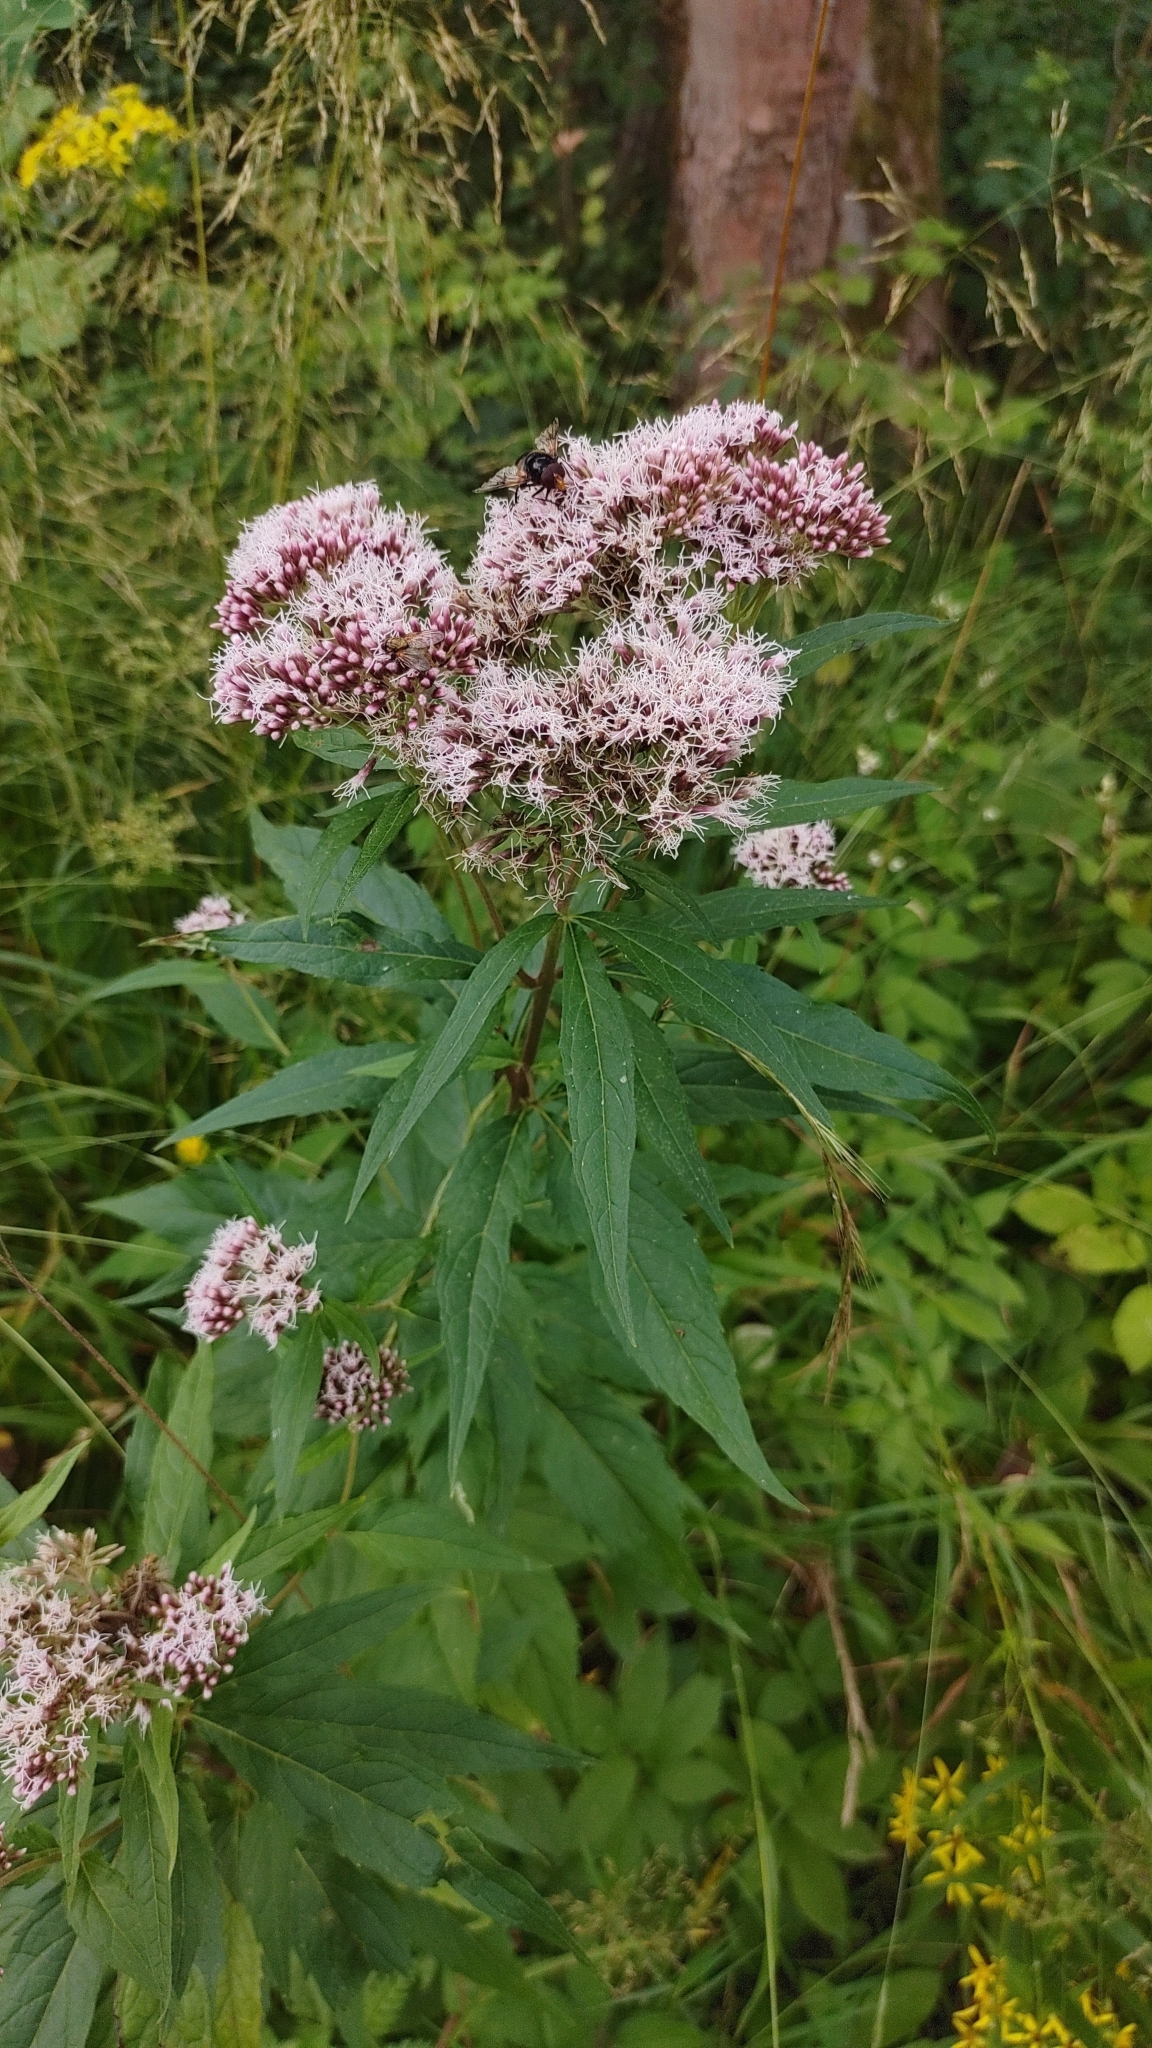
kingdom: Plantae
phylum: Tracheophyta
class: Magnoliopsida
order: Asterales
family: Asteraceae
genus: Eupatorium
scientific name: Eupatorium cannabinum
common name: Hemp-agrimony
